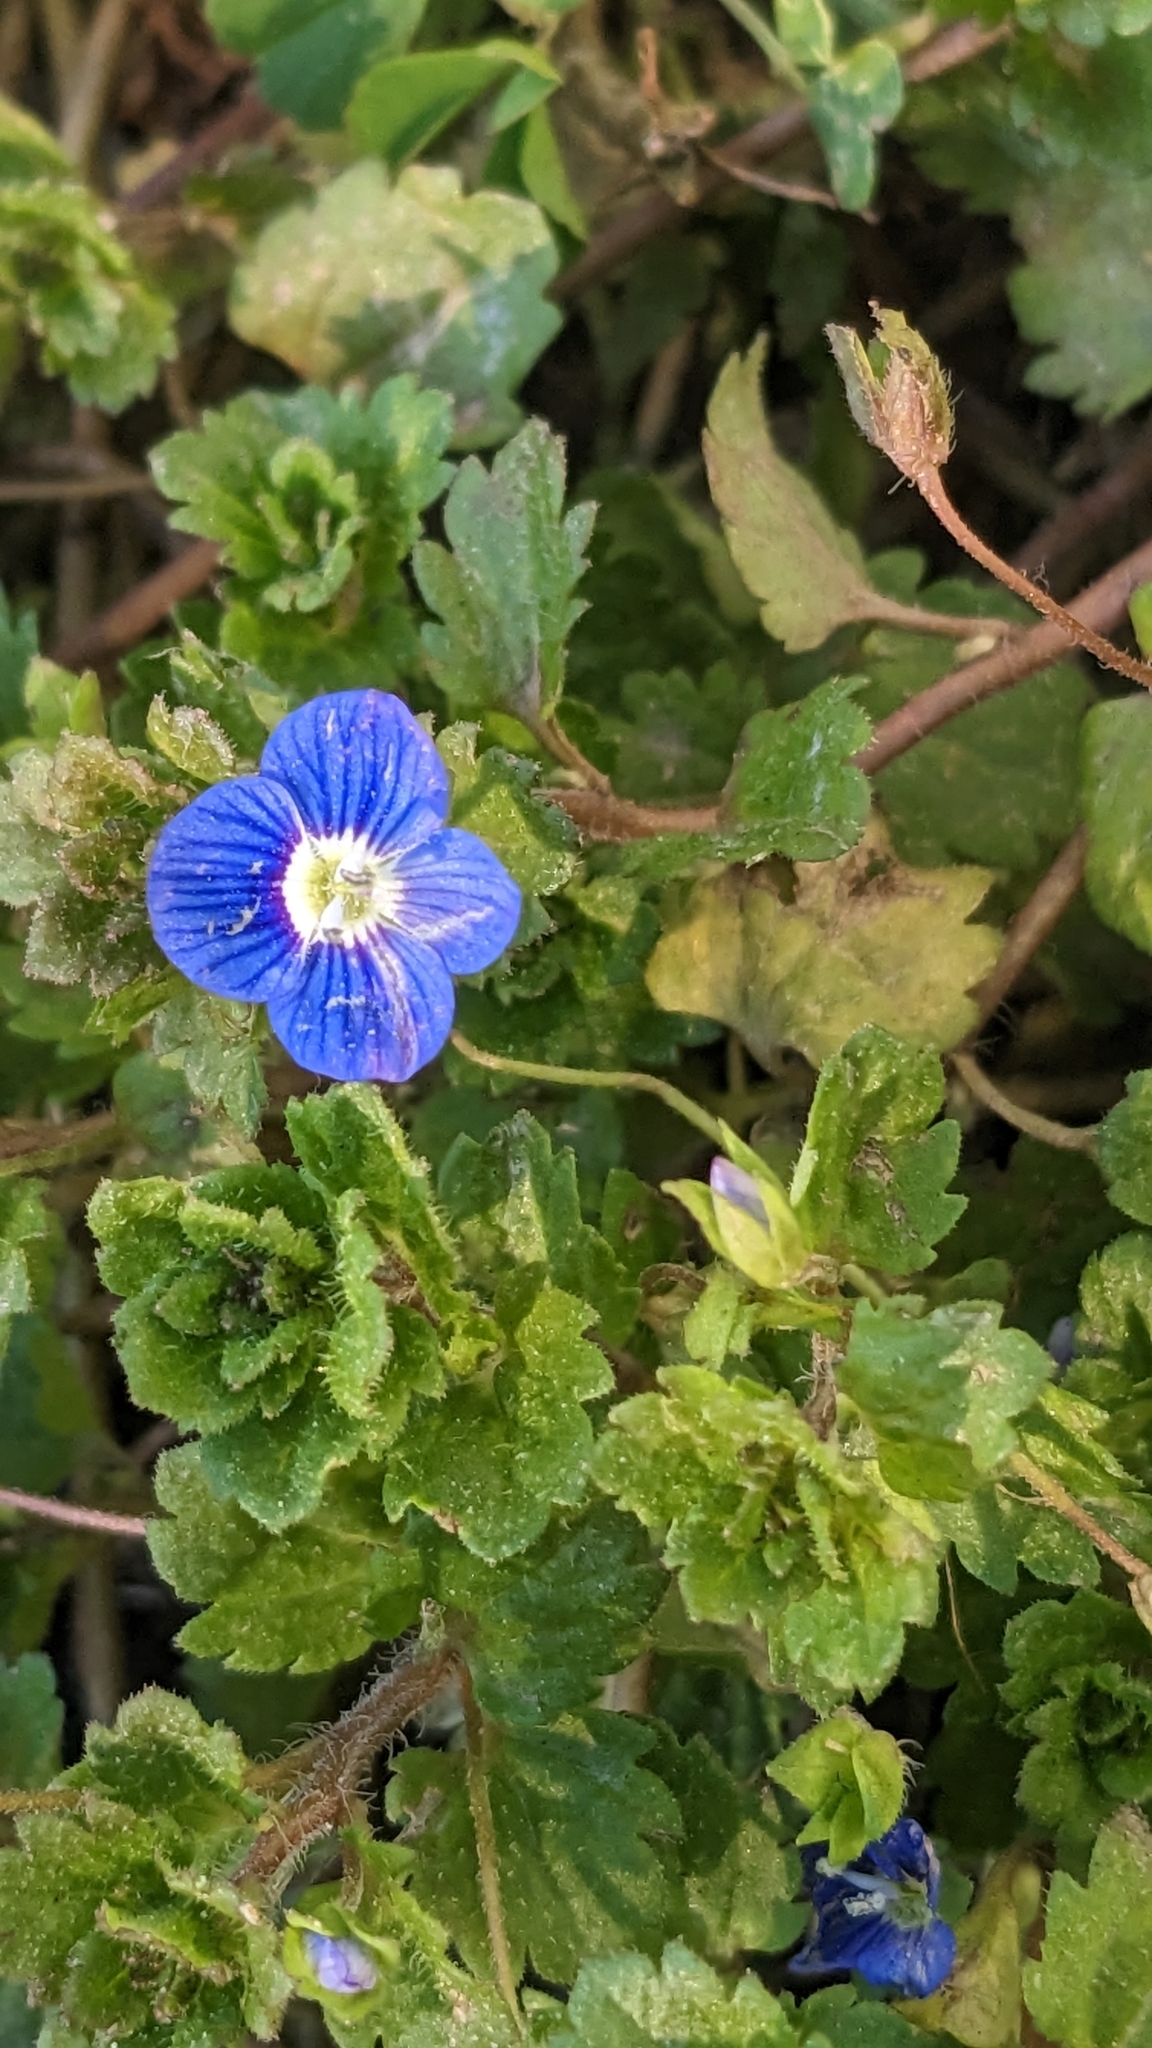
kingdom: Plantae
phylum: Tracheophyta
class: Magnoliopsida
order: Lamiales
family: Plantaginaceae
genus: Veronica
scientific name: Veronica persica
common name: Common field-speedwell
